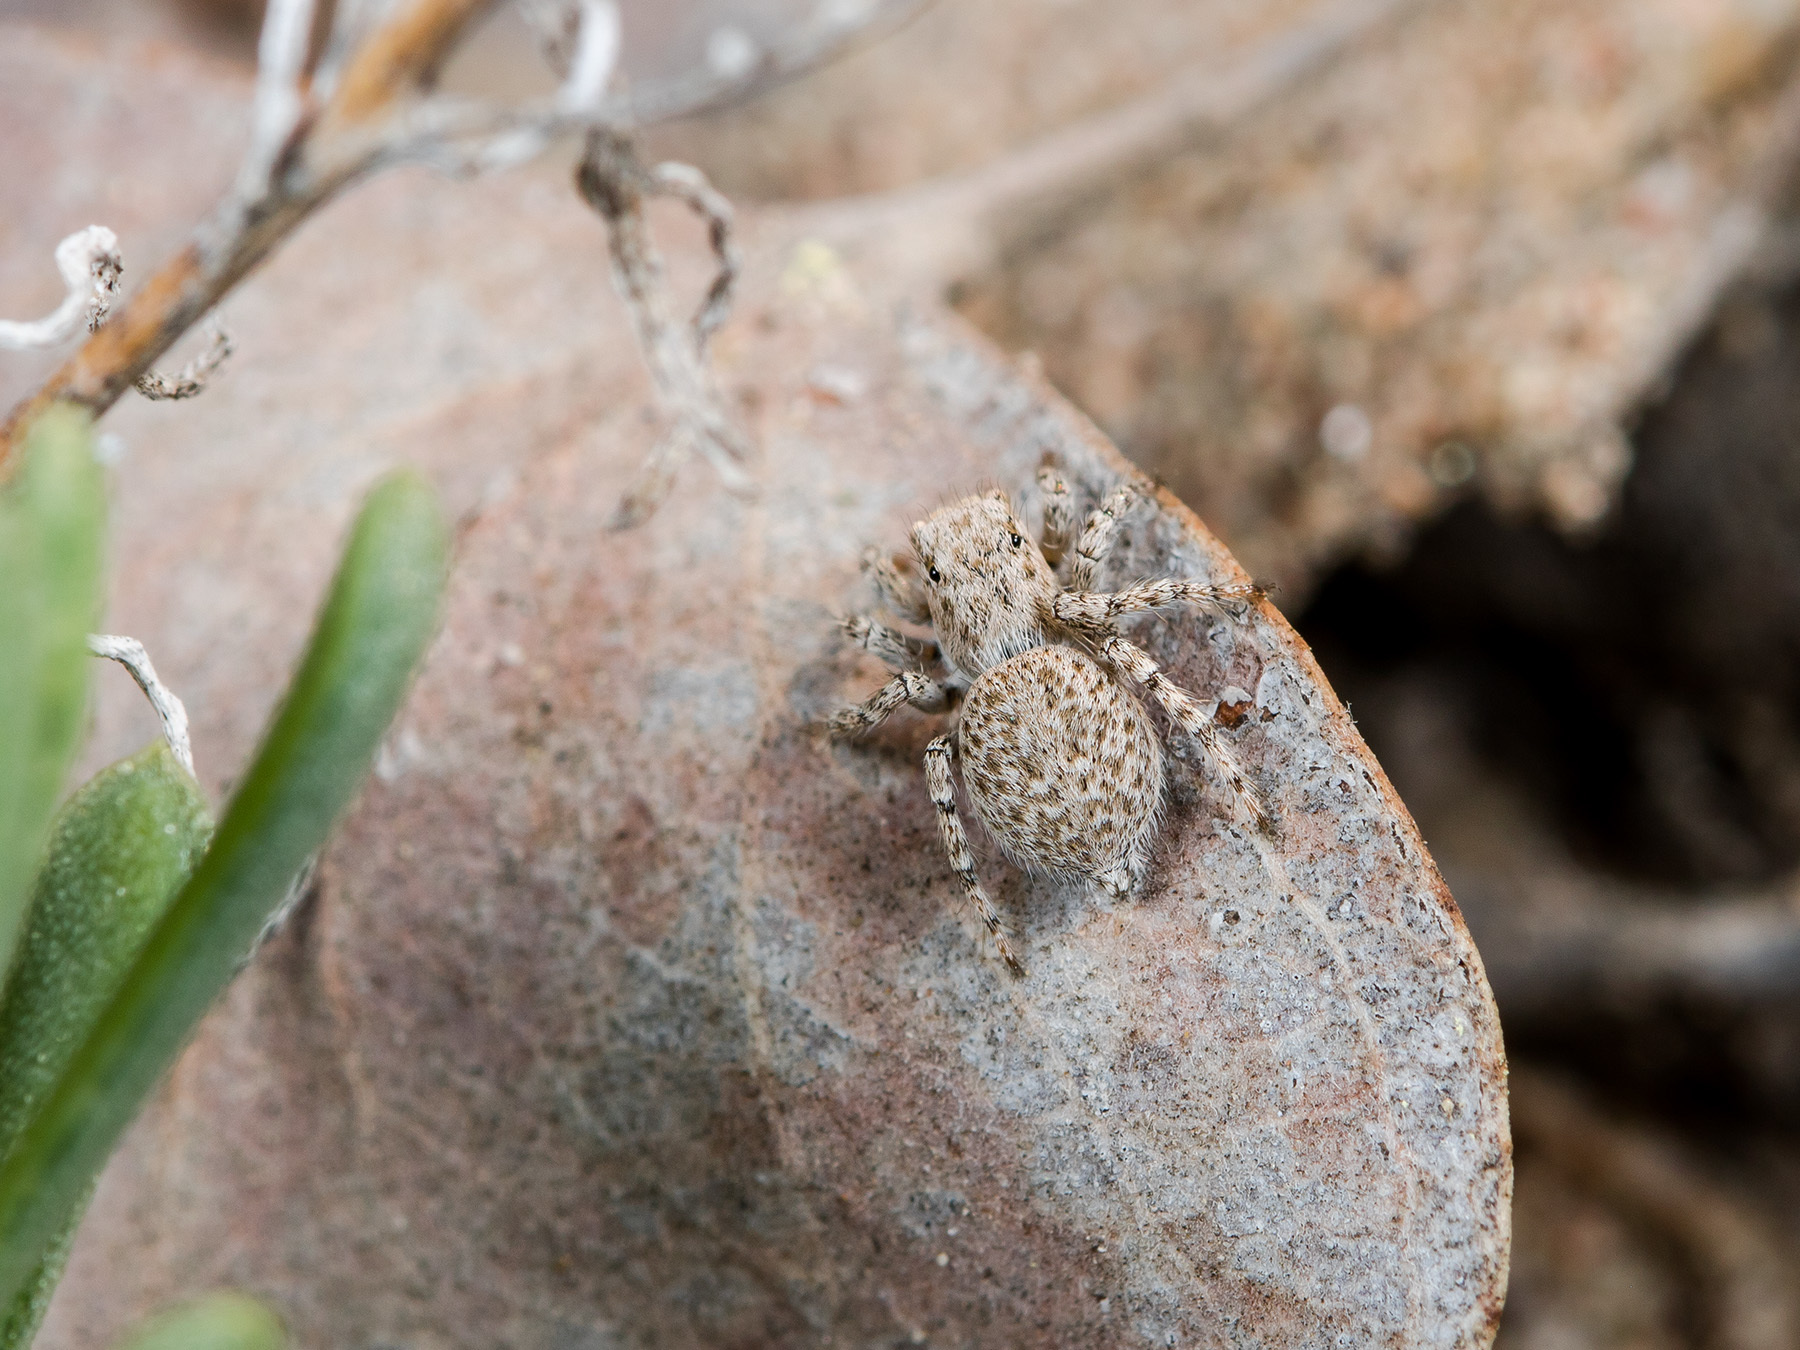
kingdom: Animalia
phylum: Arthropoda
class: Arachnida
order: Araneae
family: Salticidae
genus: Aelurillus
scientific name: Aelurillus andreevae
